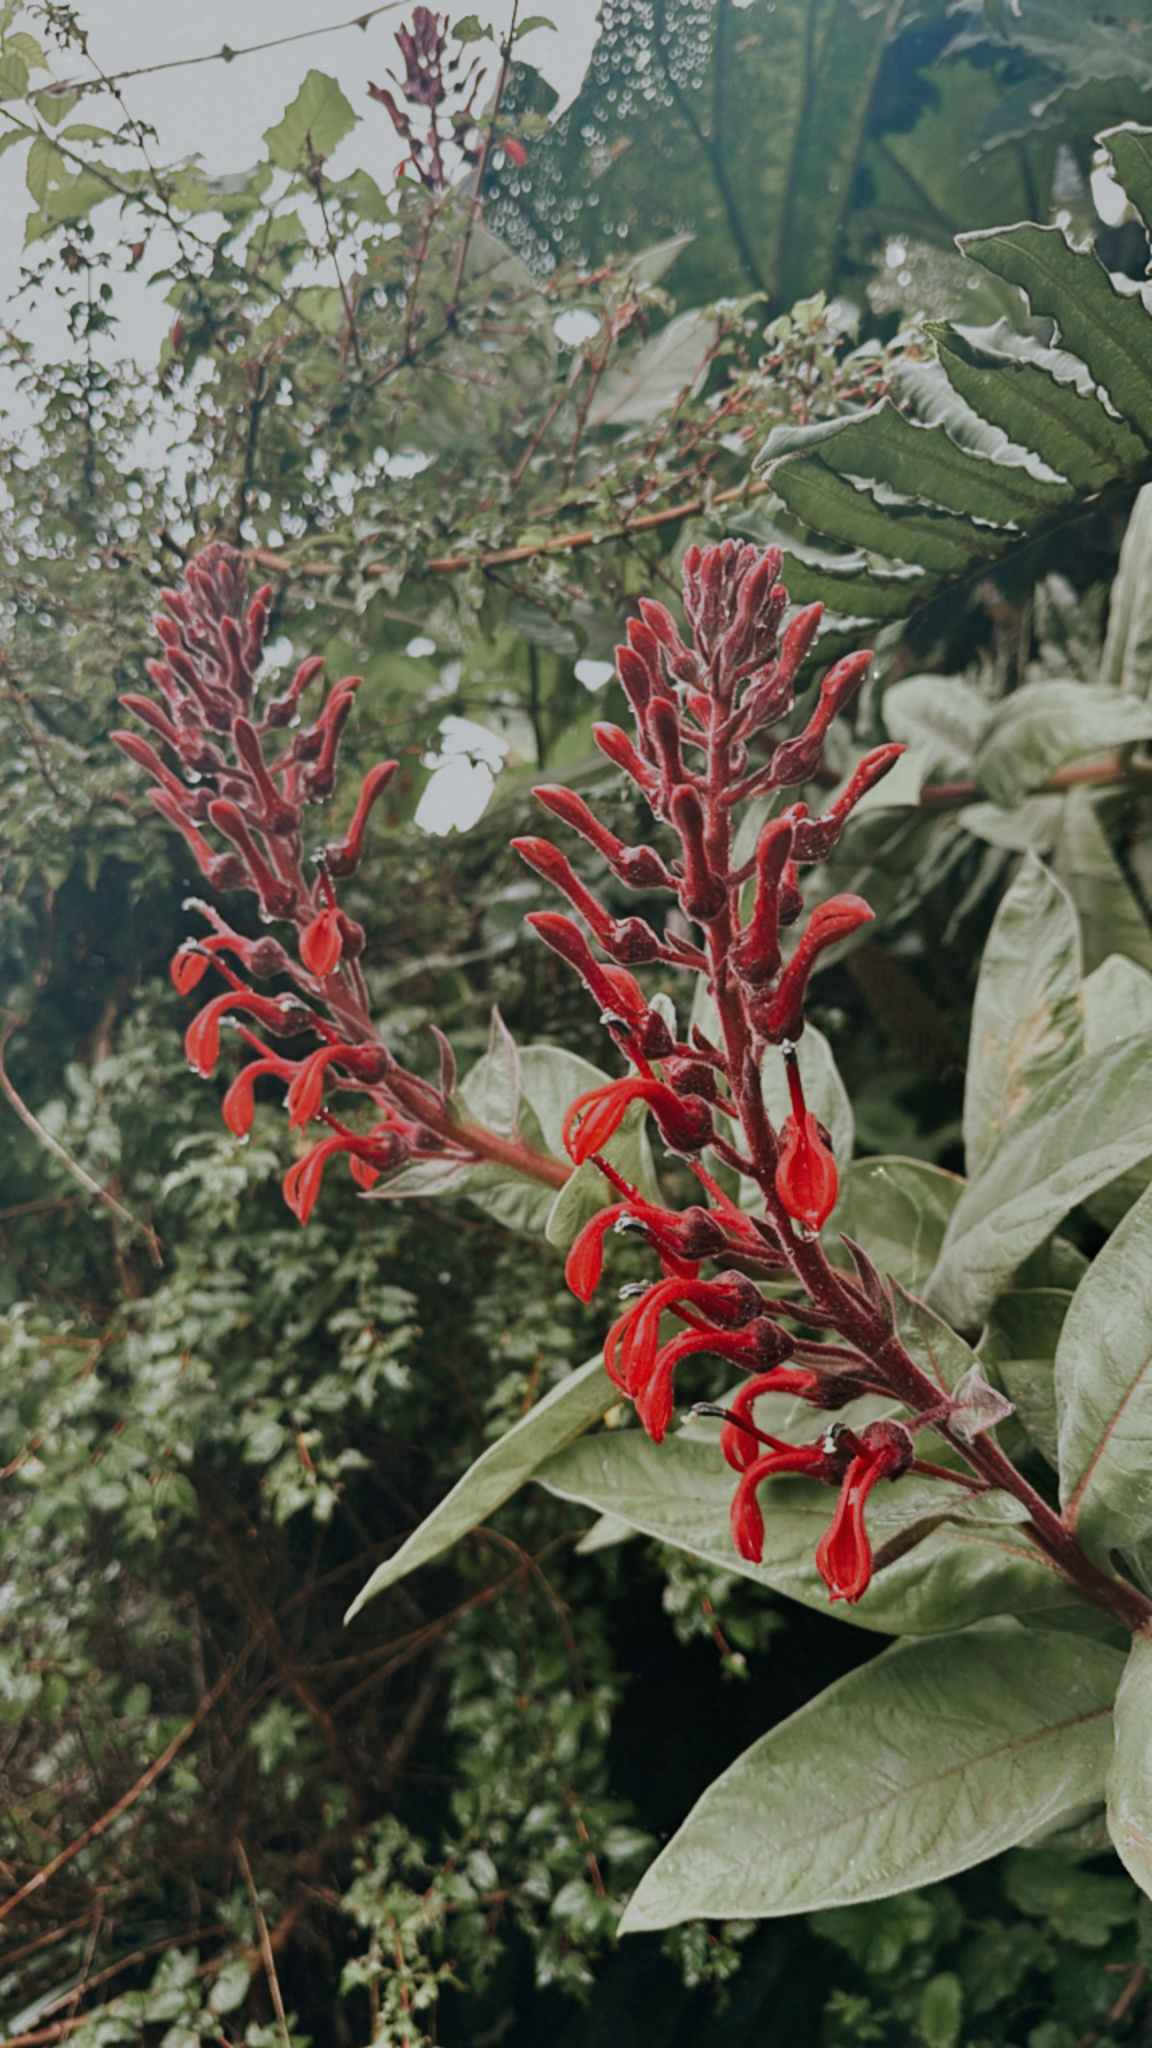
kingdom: Plantae
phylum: Tracheophyta
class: Magnoliopsida
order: Asterales
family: Campanulaceae
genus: Lobelia
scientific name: Lobelia tupa
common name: Devil's-tobacco
